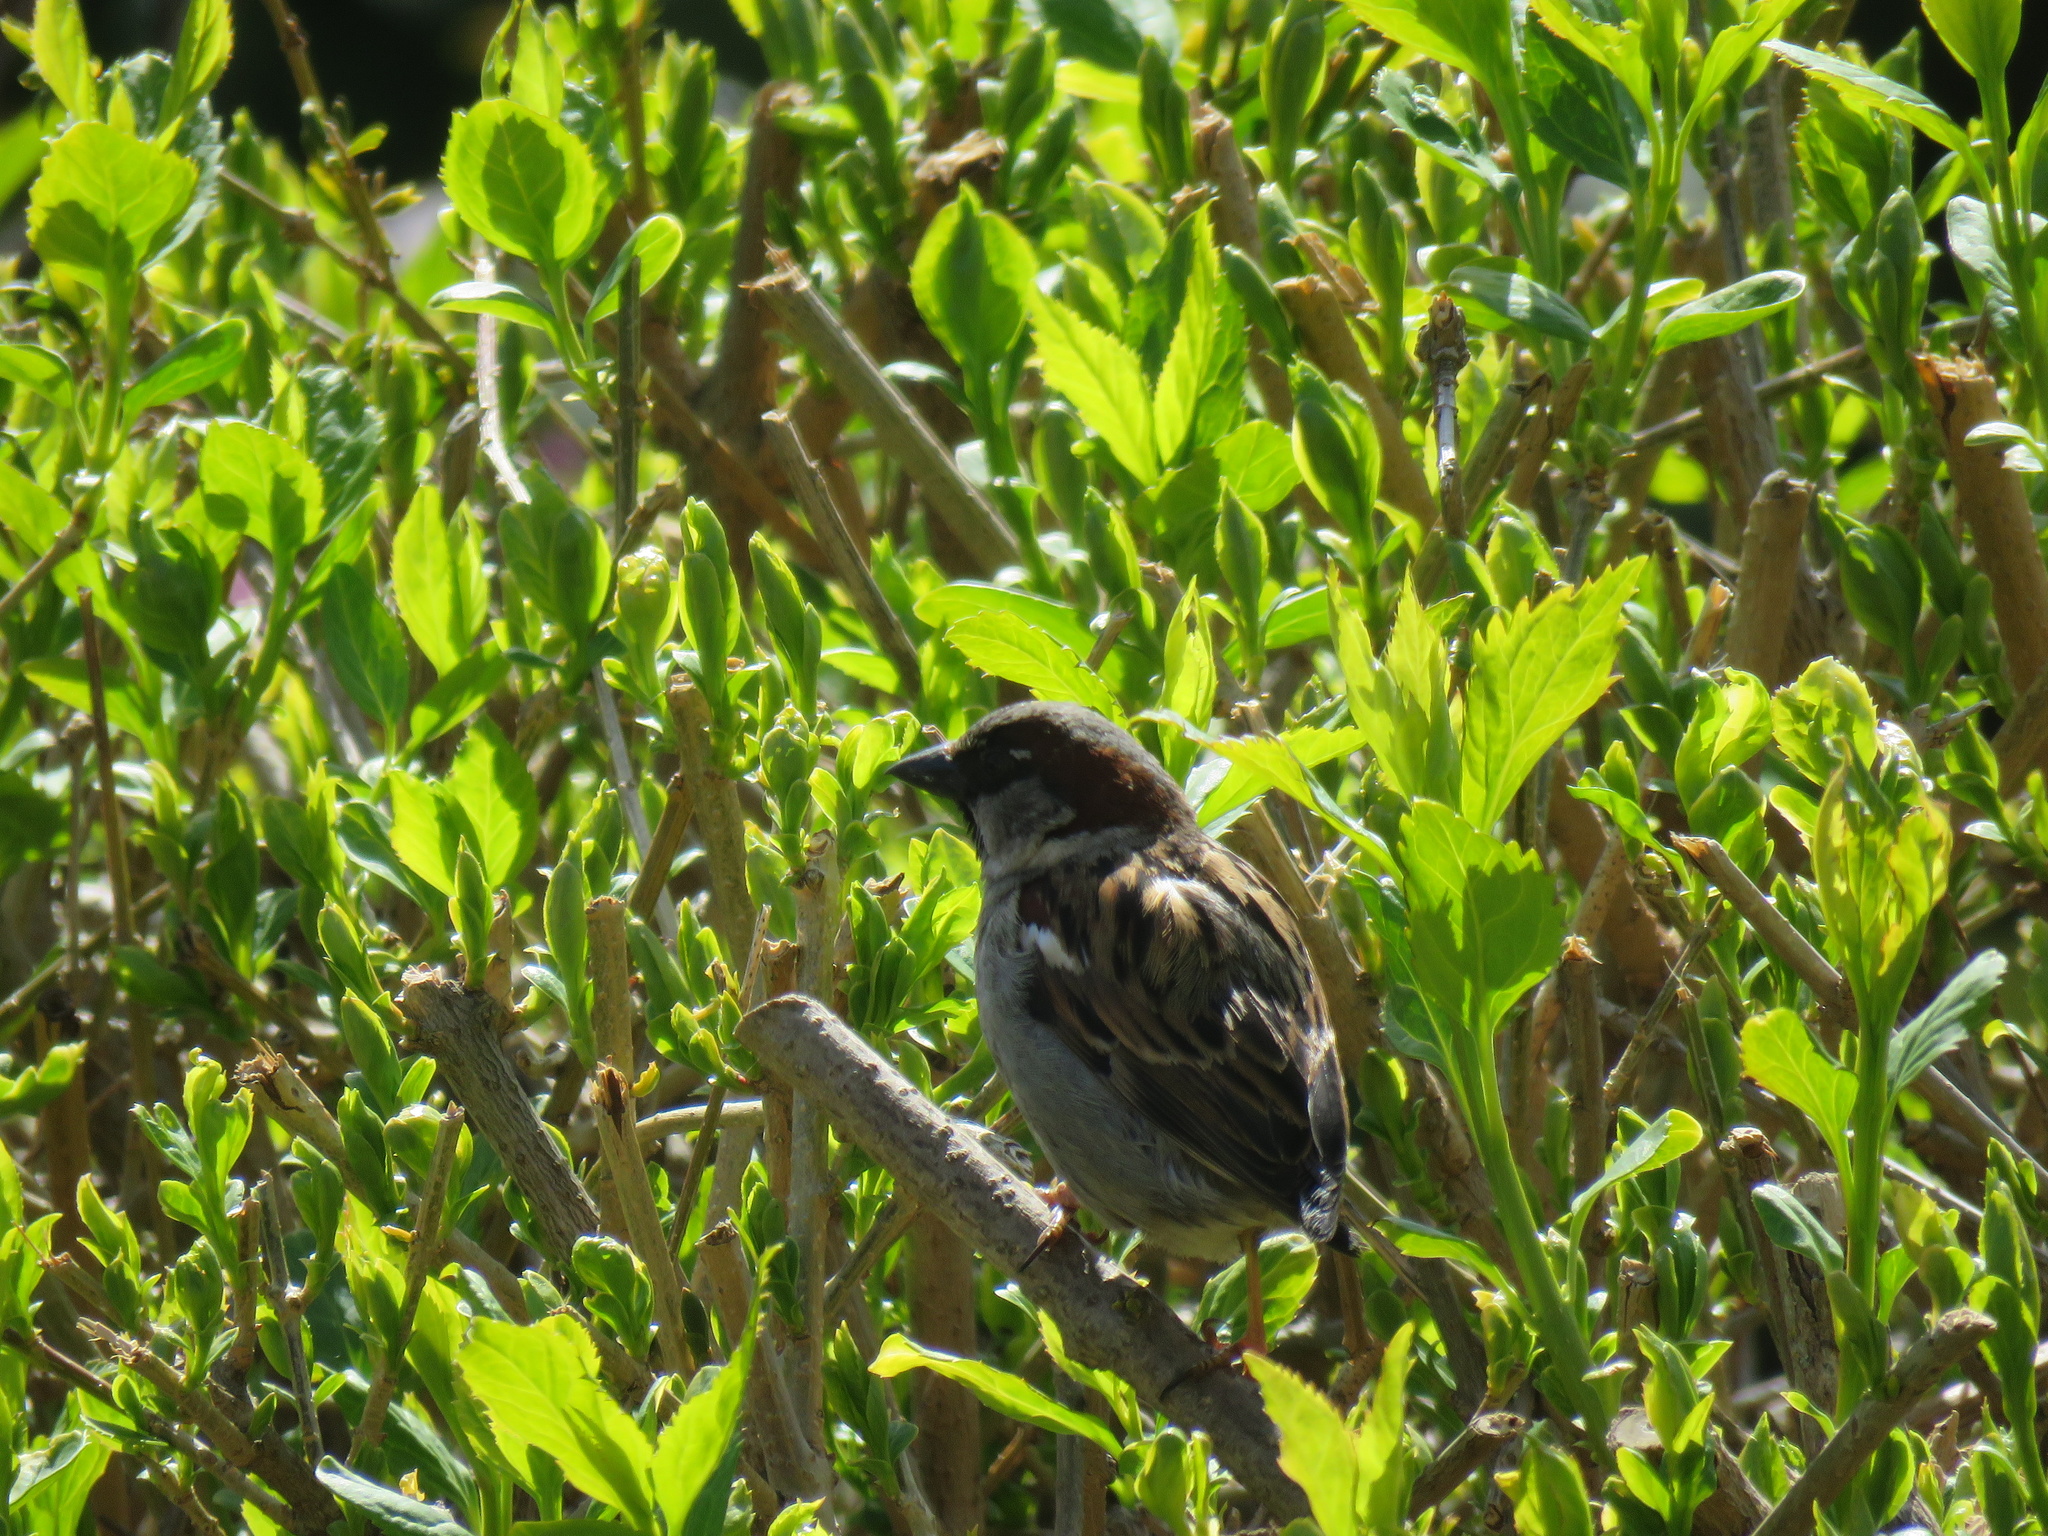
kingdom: Animalia
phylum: Chordata
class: Aves
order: Passeriformes
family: Passeridae
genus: Passer
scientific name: Passer domesticus
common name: House sparrow
